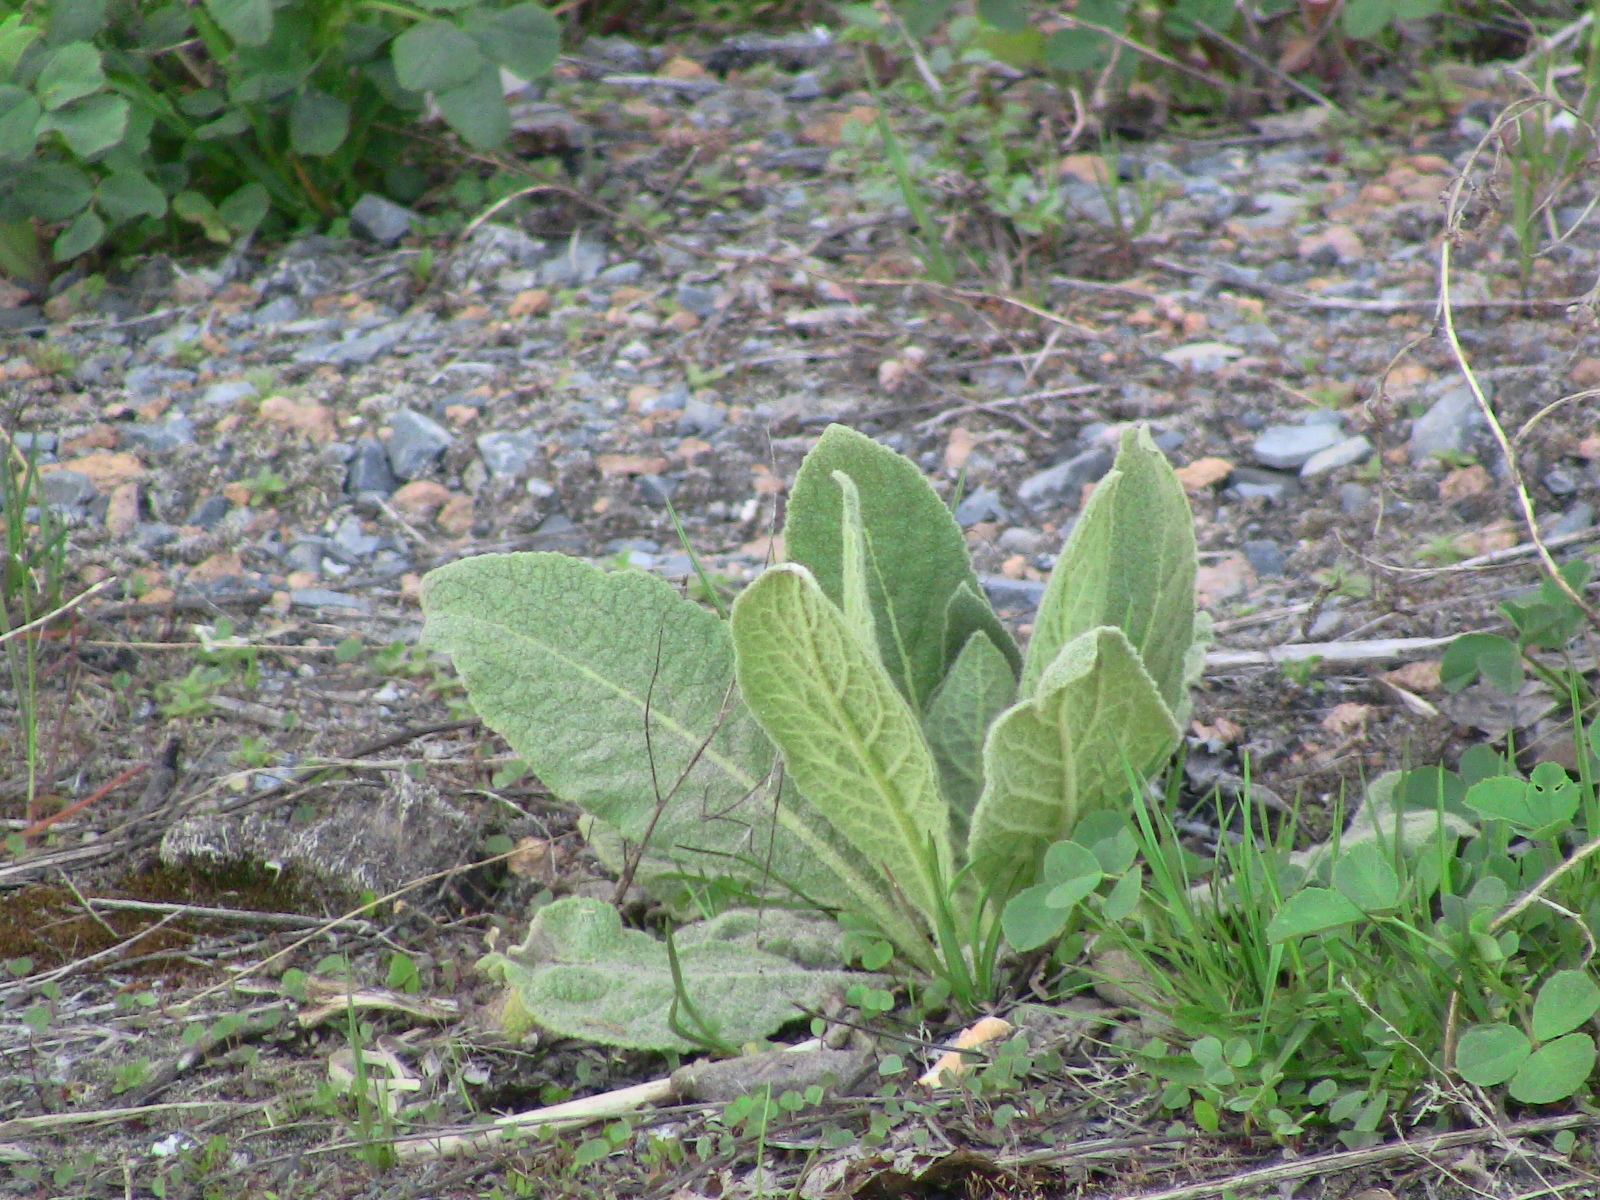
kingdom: Plantae
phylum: Tracheophyta
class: Magnoliopsida
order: Lamiales
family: Scrophulariaceae
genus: Verbascum
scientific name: Verbascum thapsus
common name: Common mullein
